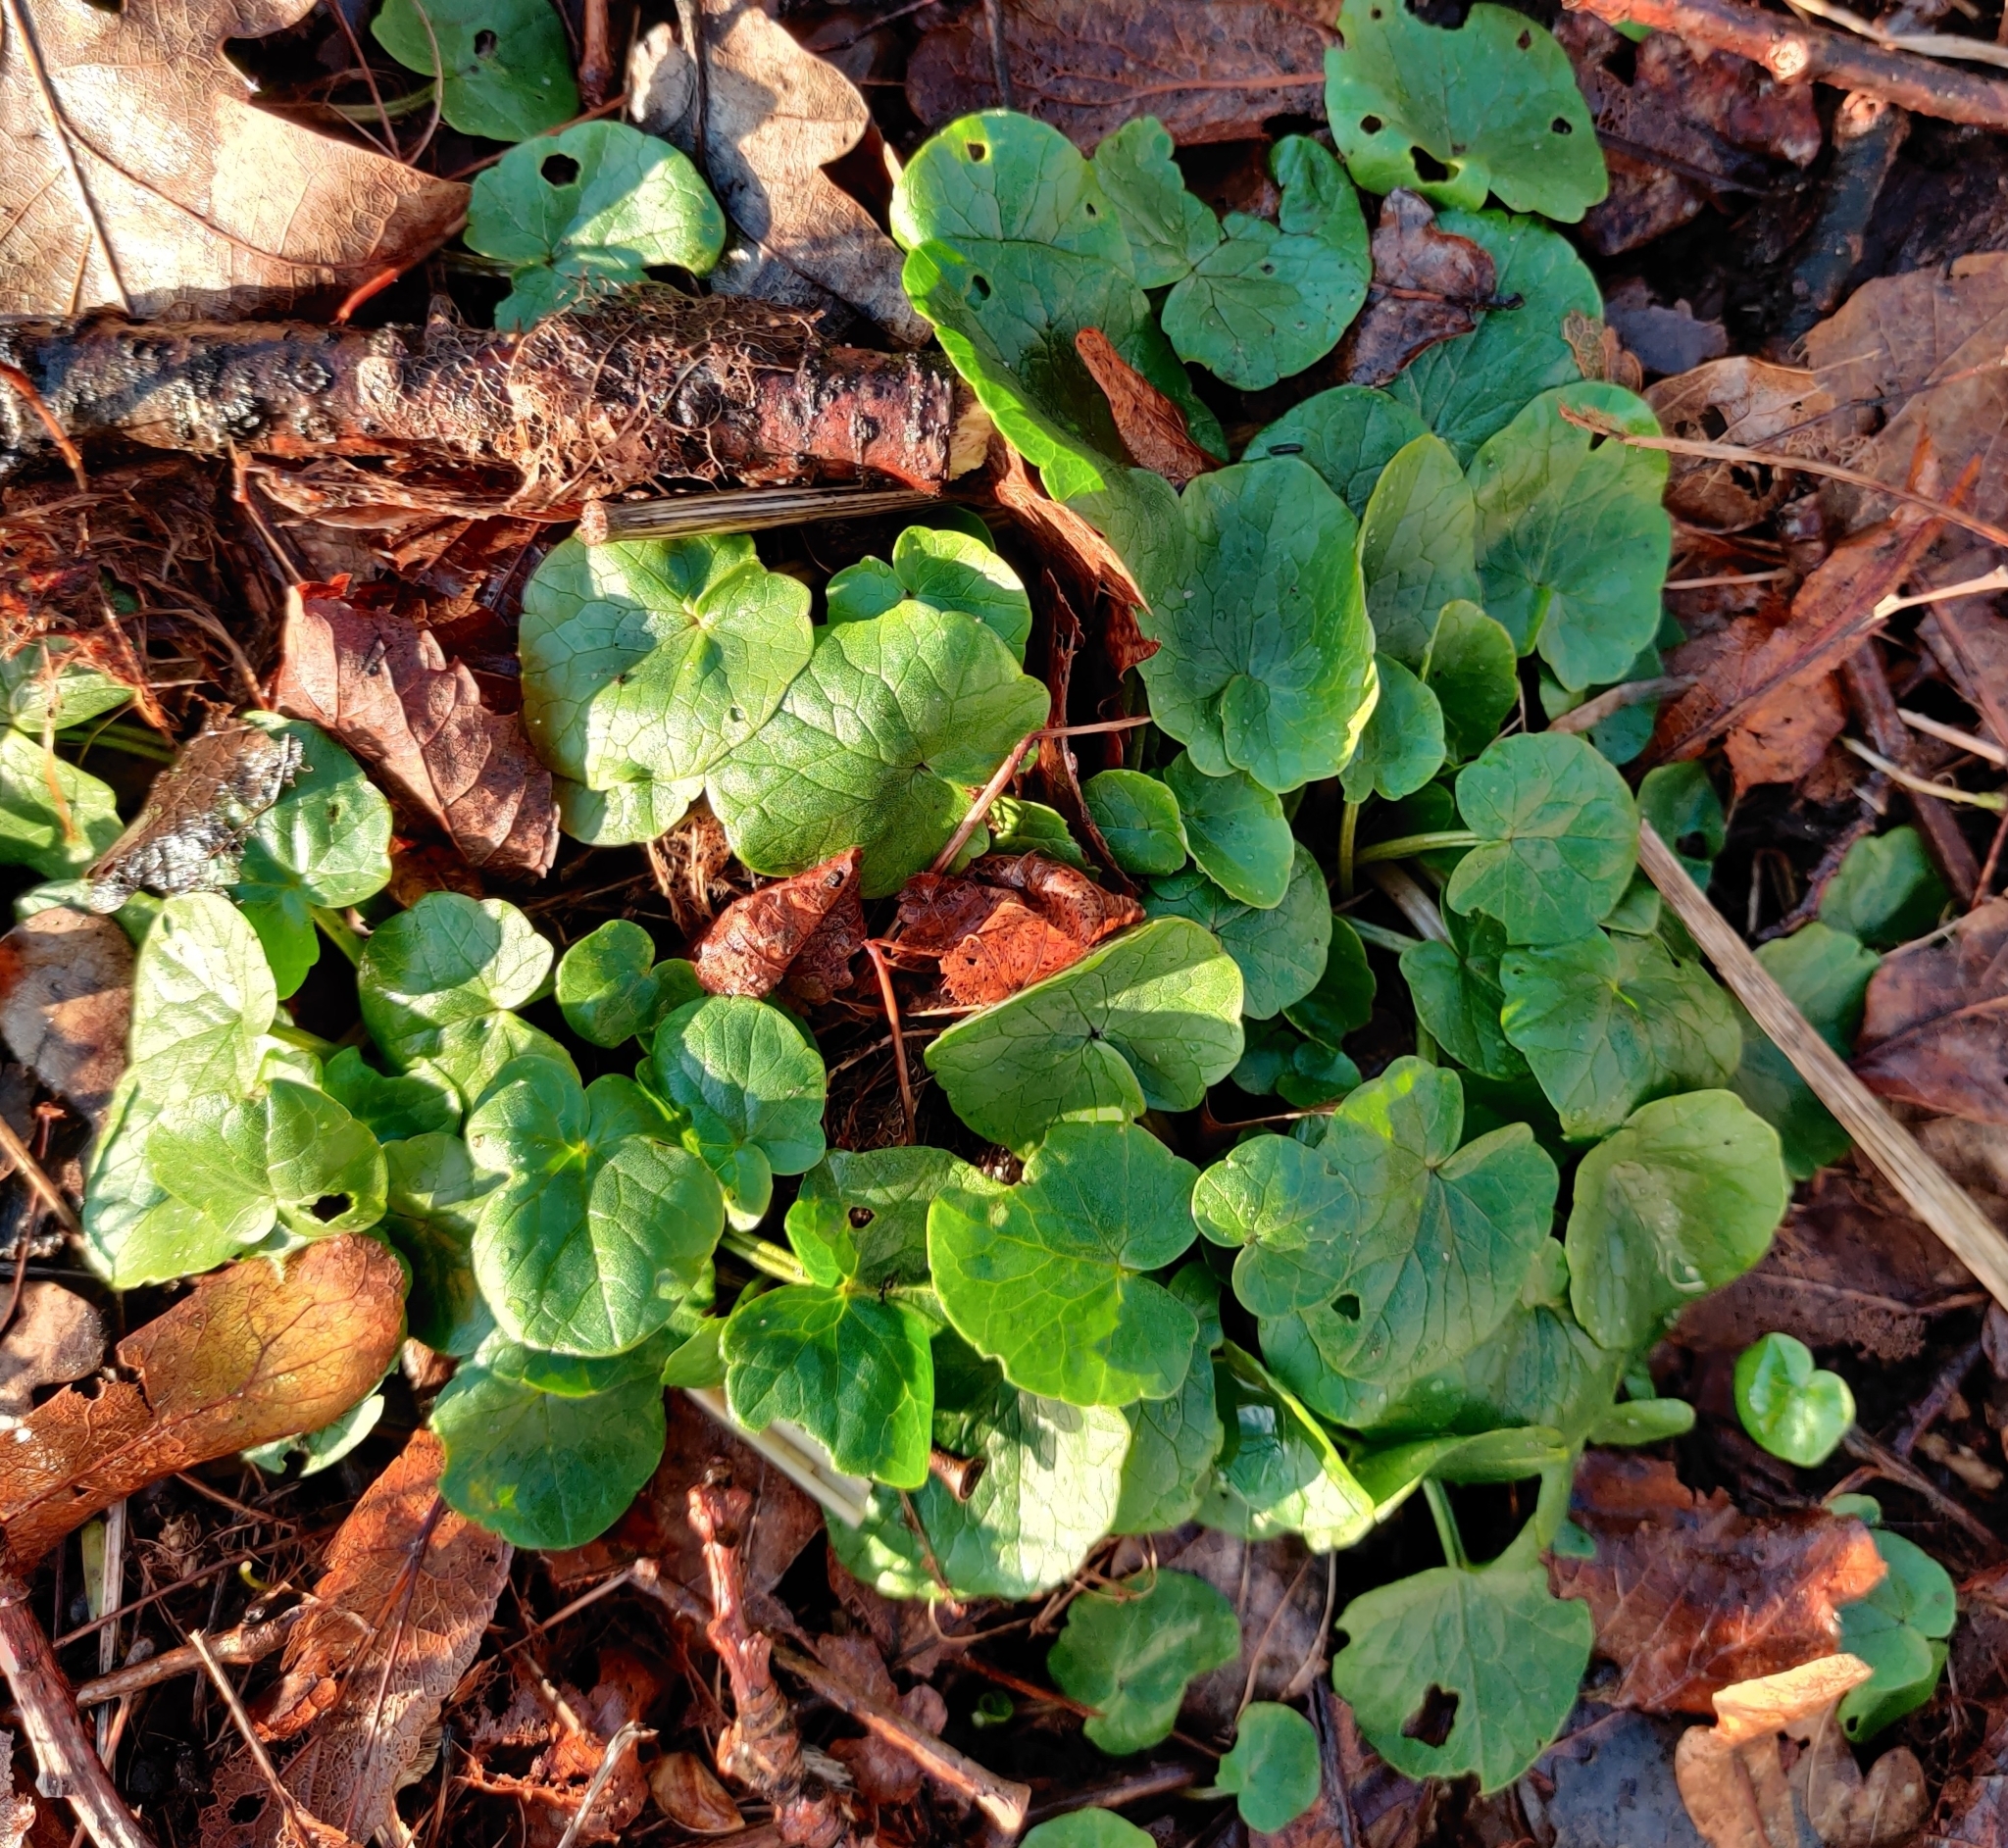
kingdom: Plantae
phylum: Tracheophyta
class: Magnoliopsida
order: Ranunculales
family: Ranunculaceae
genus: Ficaria
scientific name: Ficaria verna
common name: Lesser celandine
